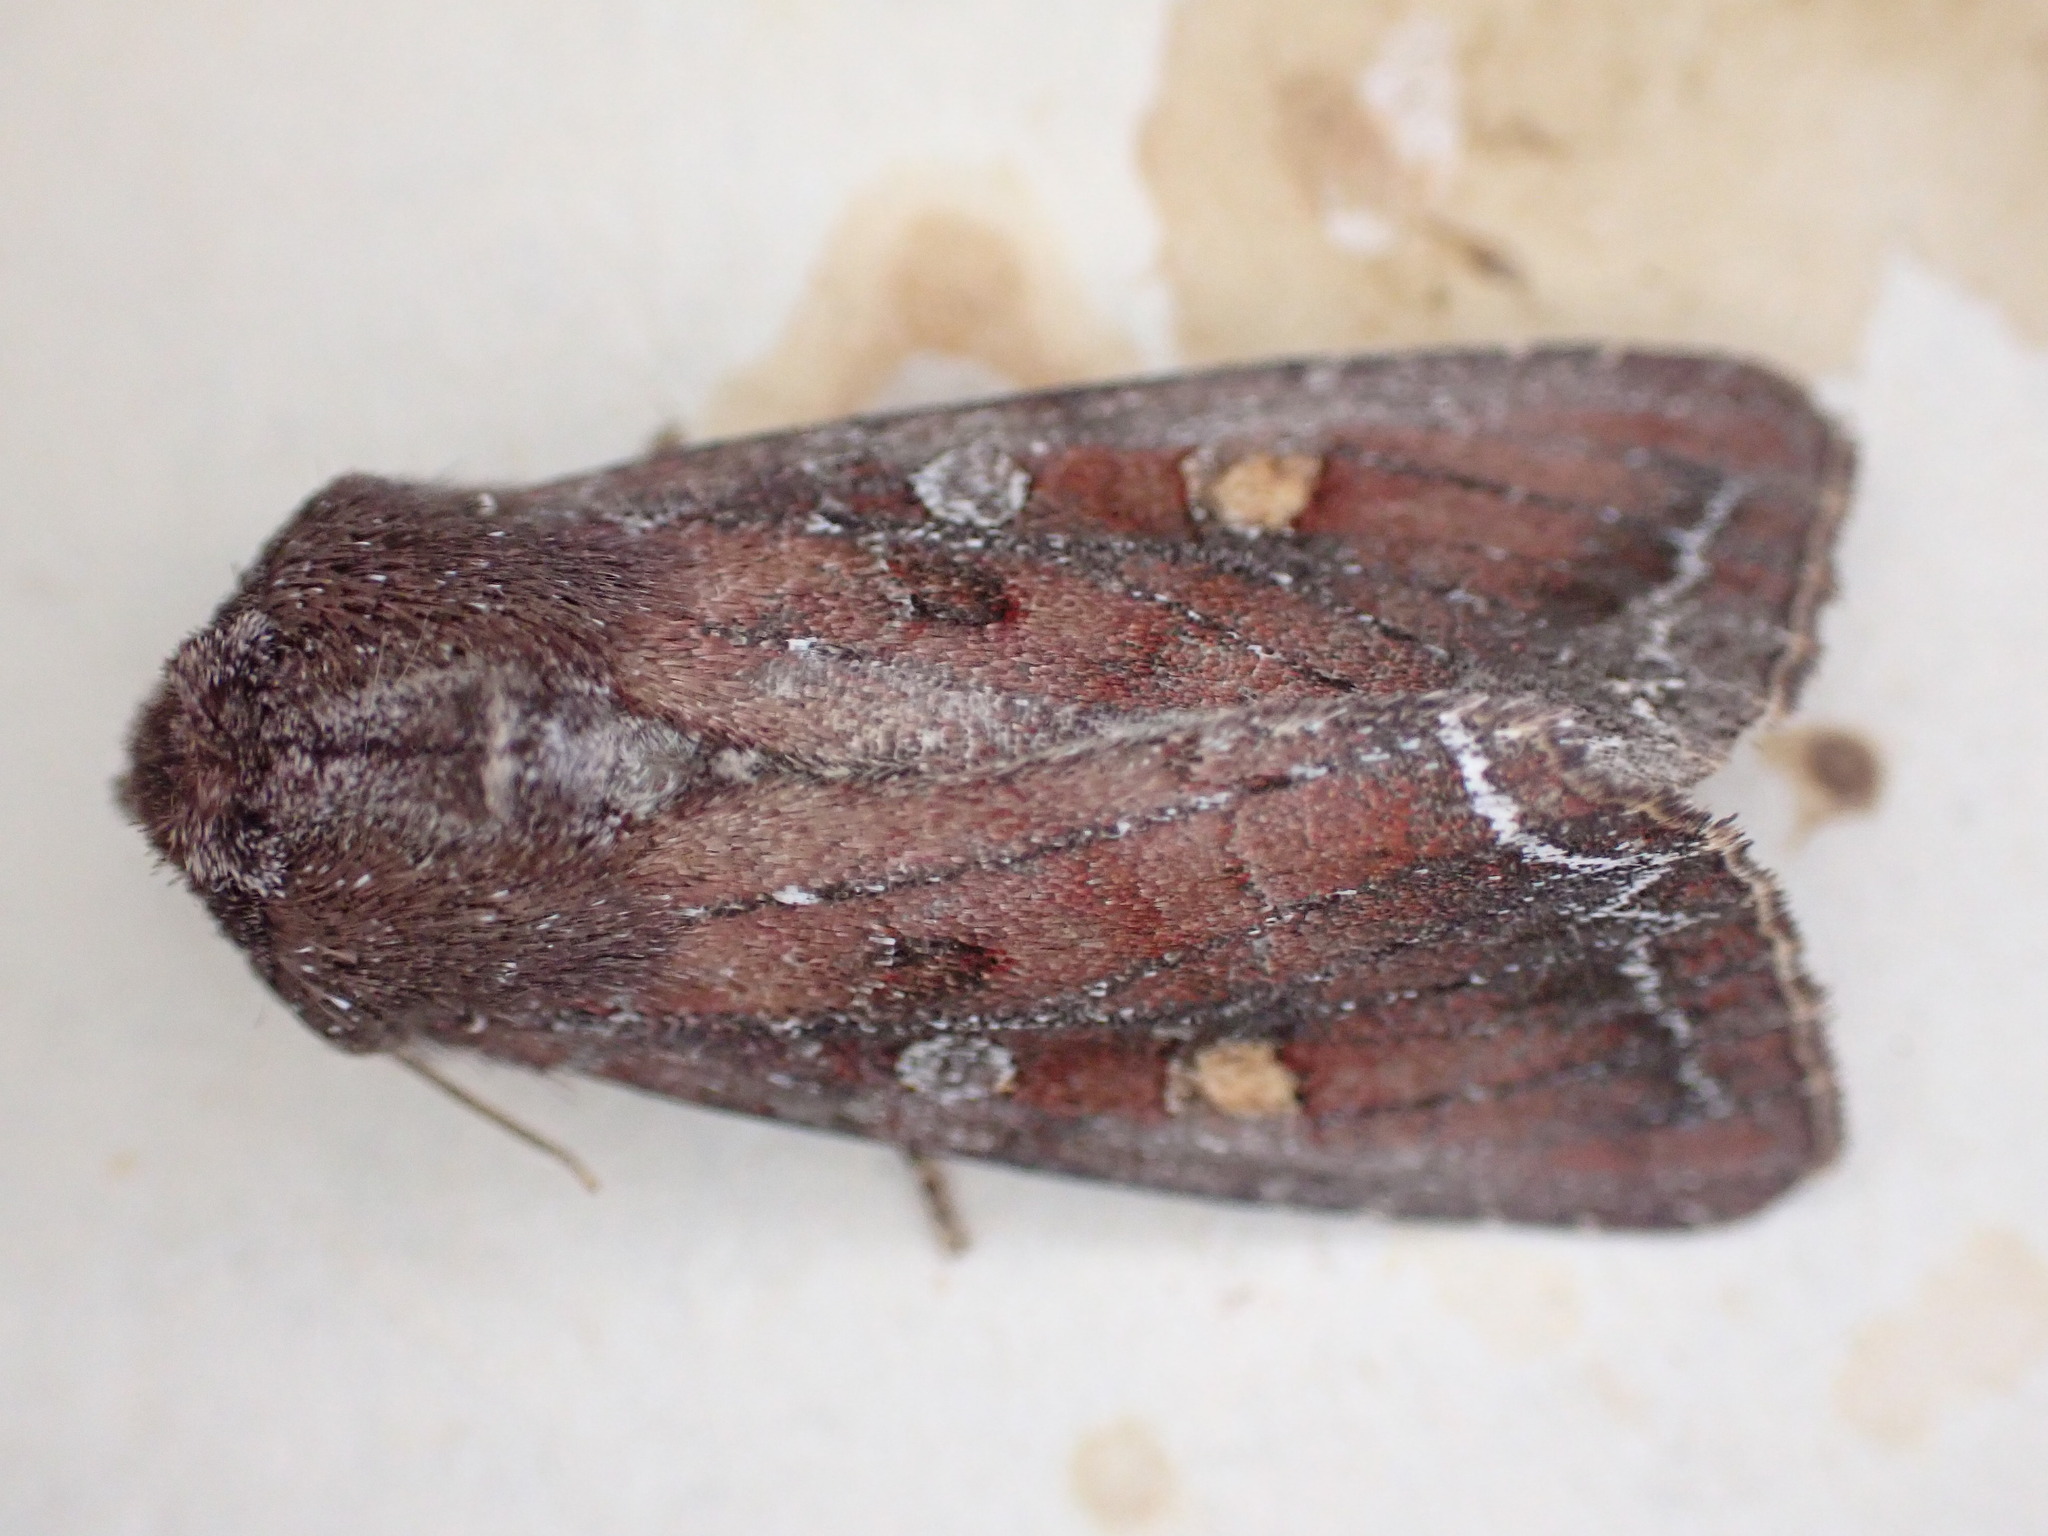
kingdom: Animalia
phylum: Arthropoda
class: Insecta
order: Lepidoptera
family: Noctuidae
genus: Lacanobia
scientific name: Lacanobia oleracea
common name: Bright-line brown-eye
